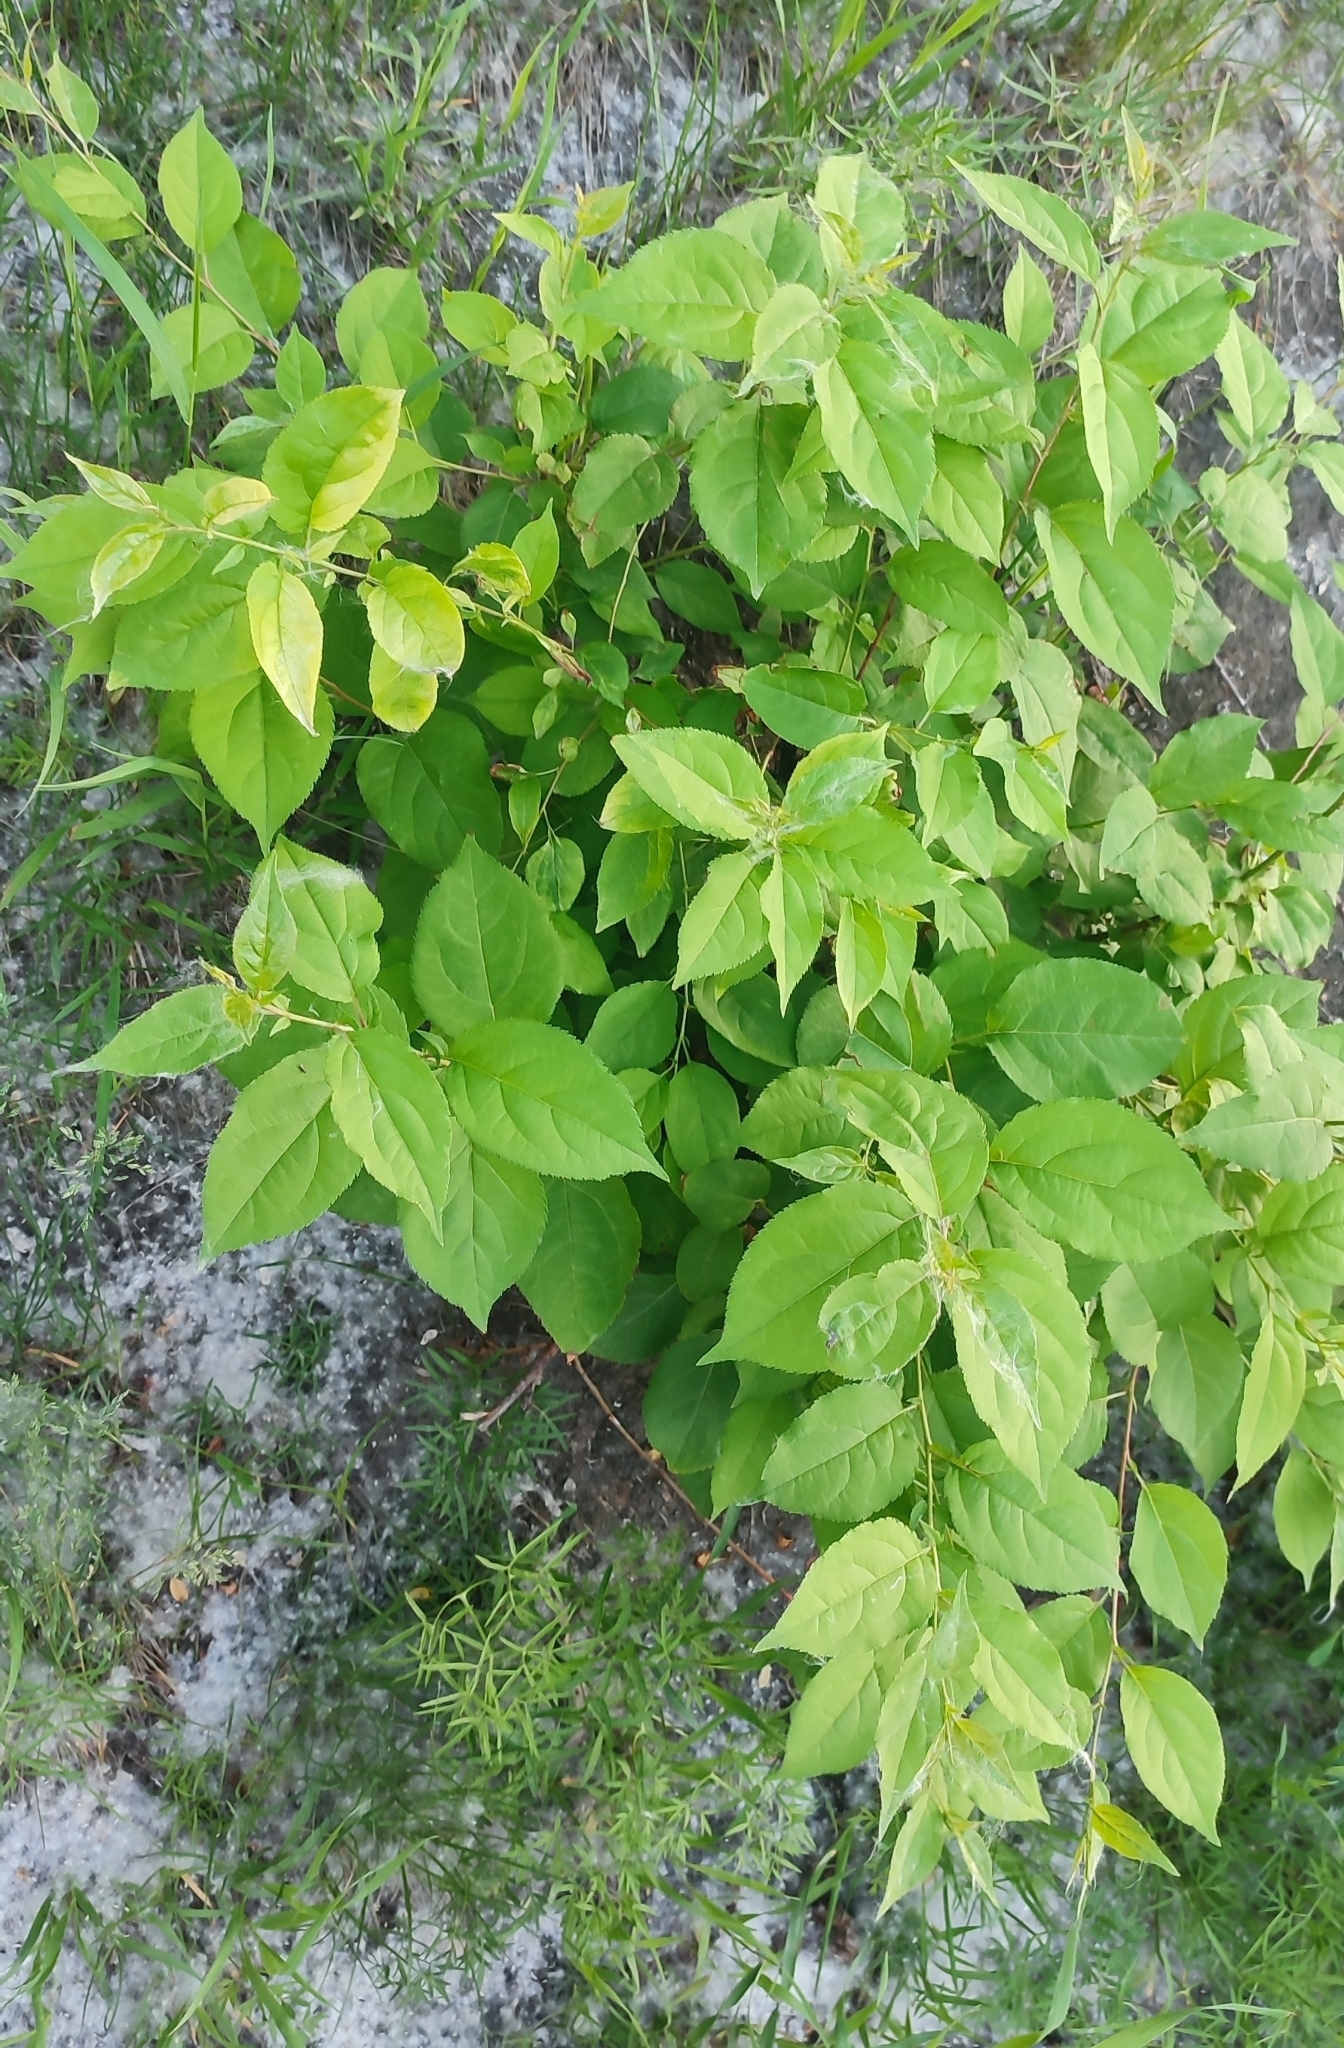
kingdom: Plantae
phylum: Tracheophyta
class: Magnoliopsida
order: Rosales
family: Rosaceae
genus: Malus
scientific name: Malus baccata
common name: Siberian crab
